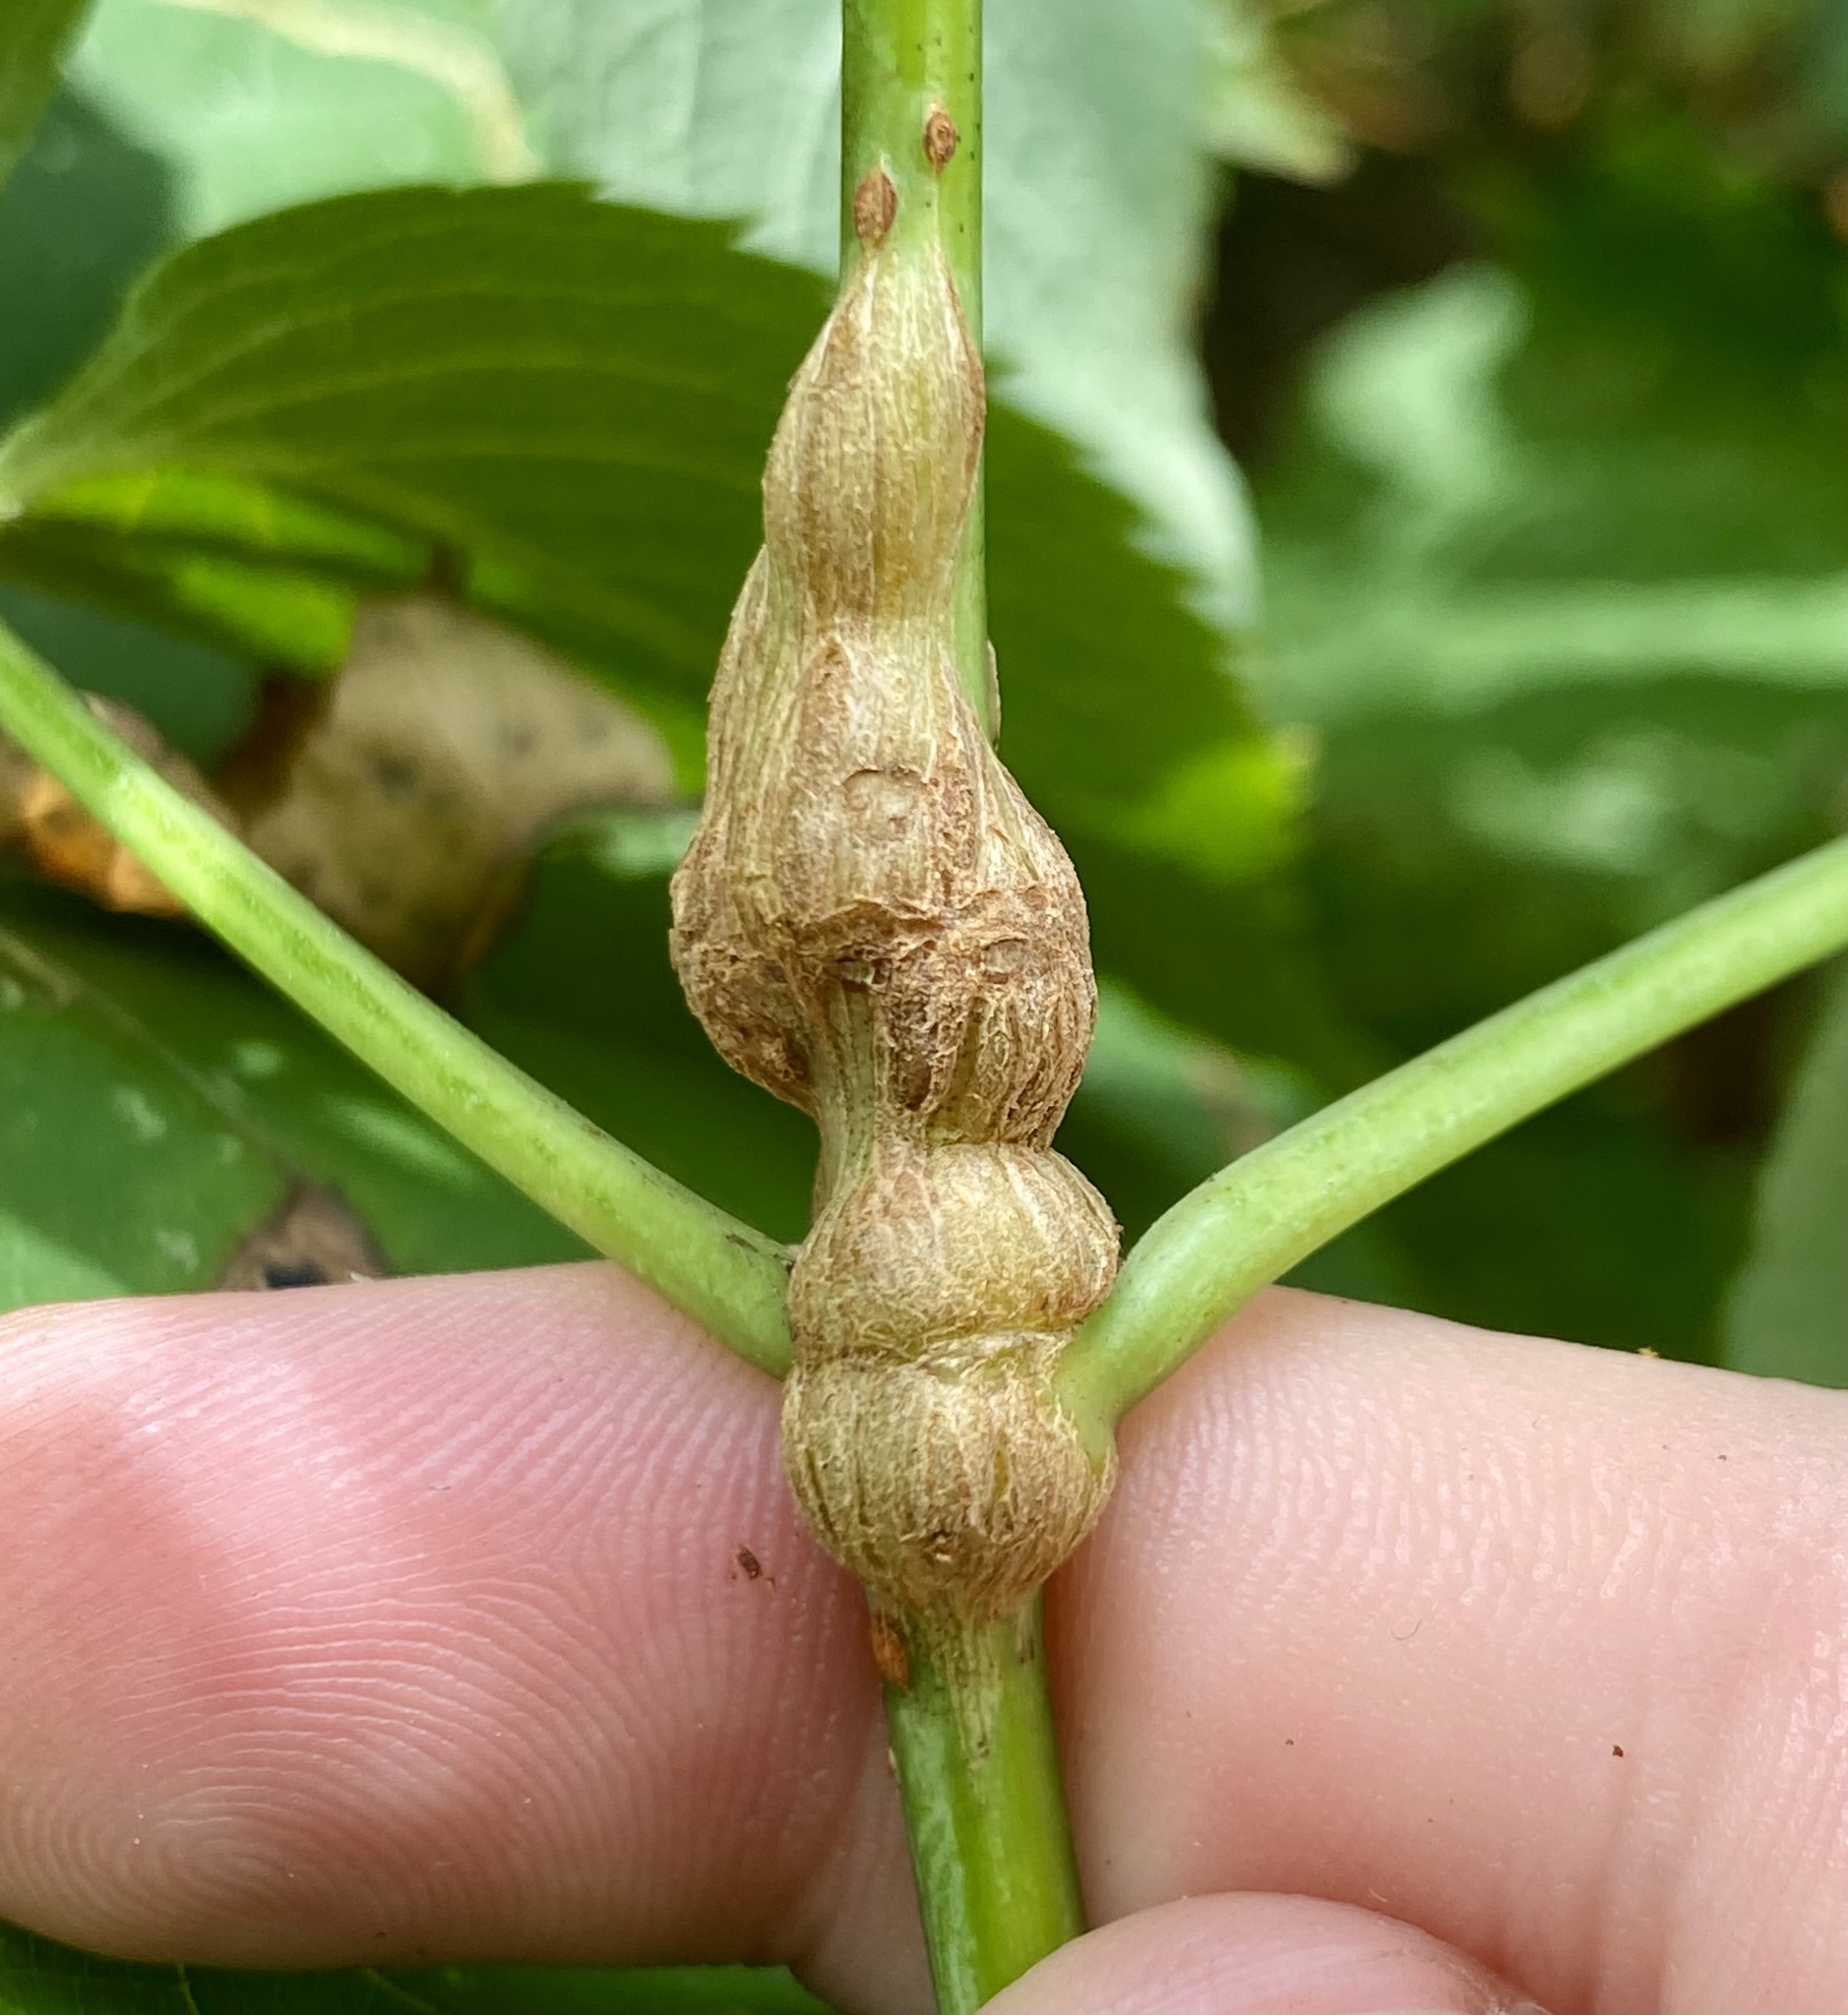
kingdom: Animalia
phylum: Arthropoda
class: Insecta
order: Diptera
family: Cecidomyiidae
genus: Neolasioptera
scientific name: Neolasioptera pierrei
